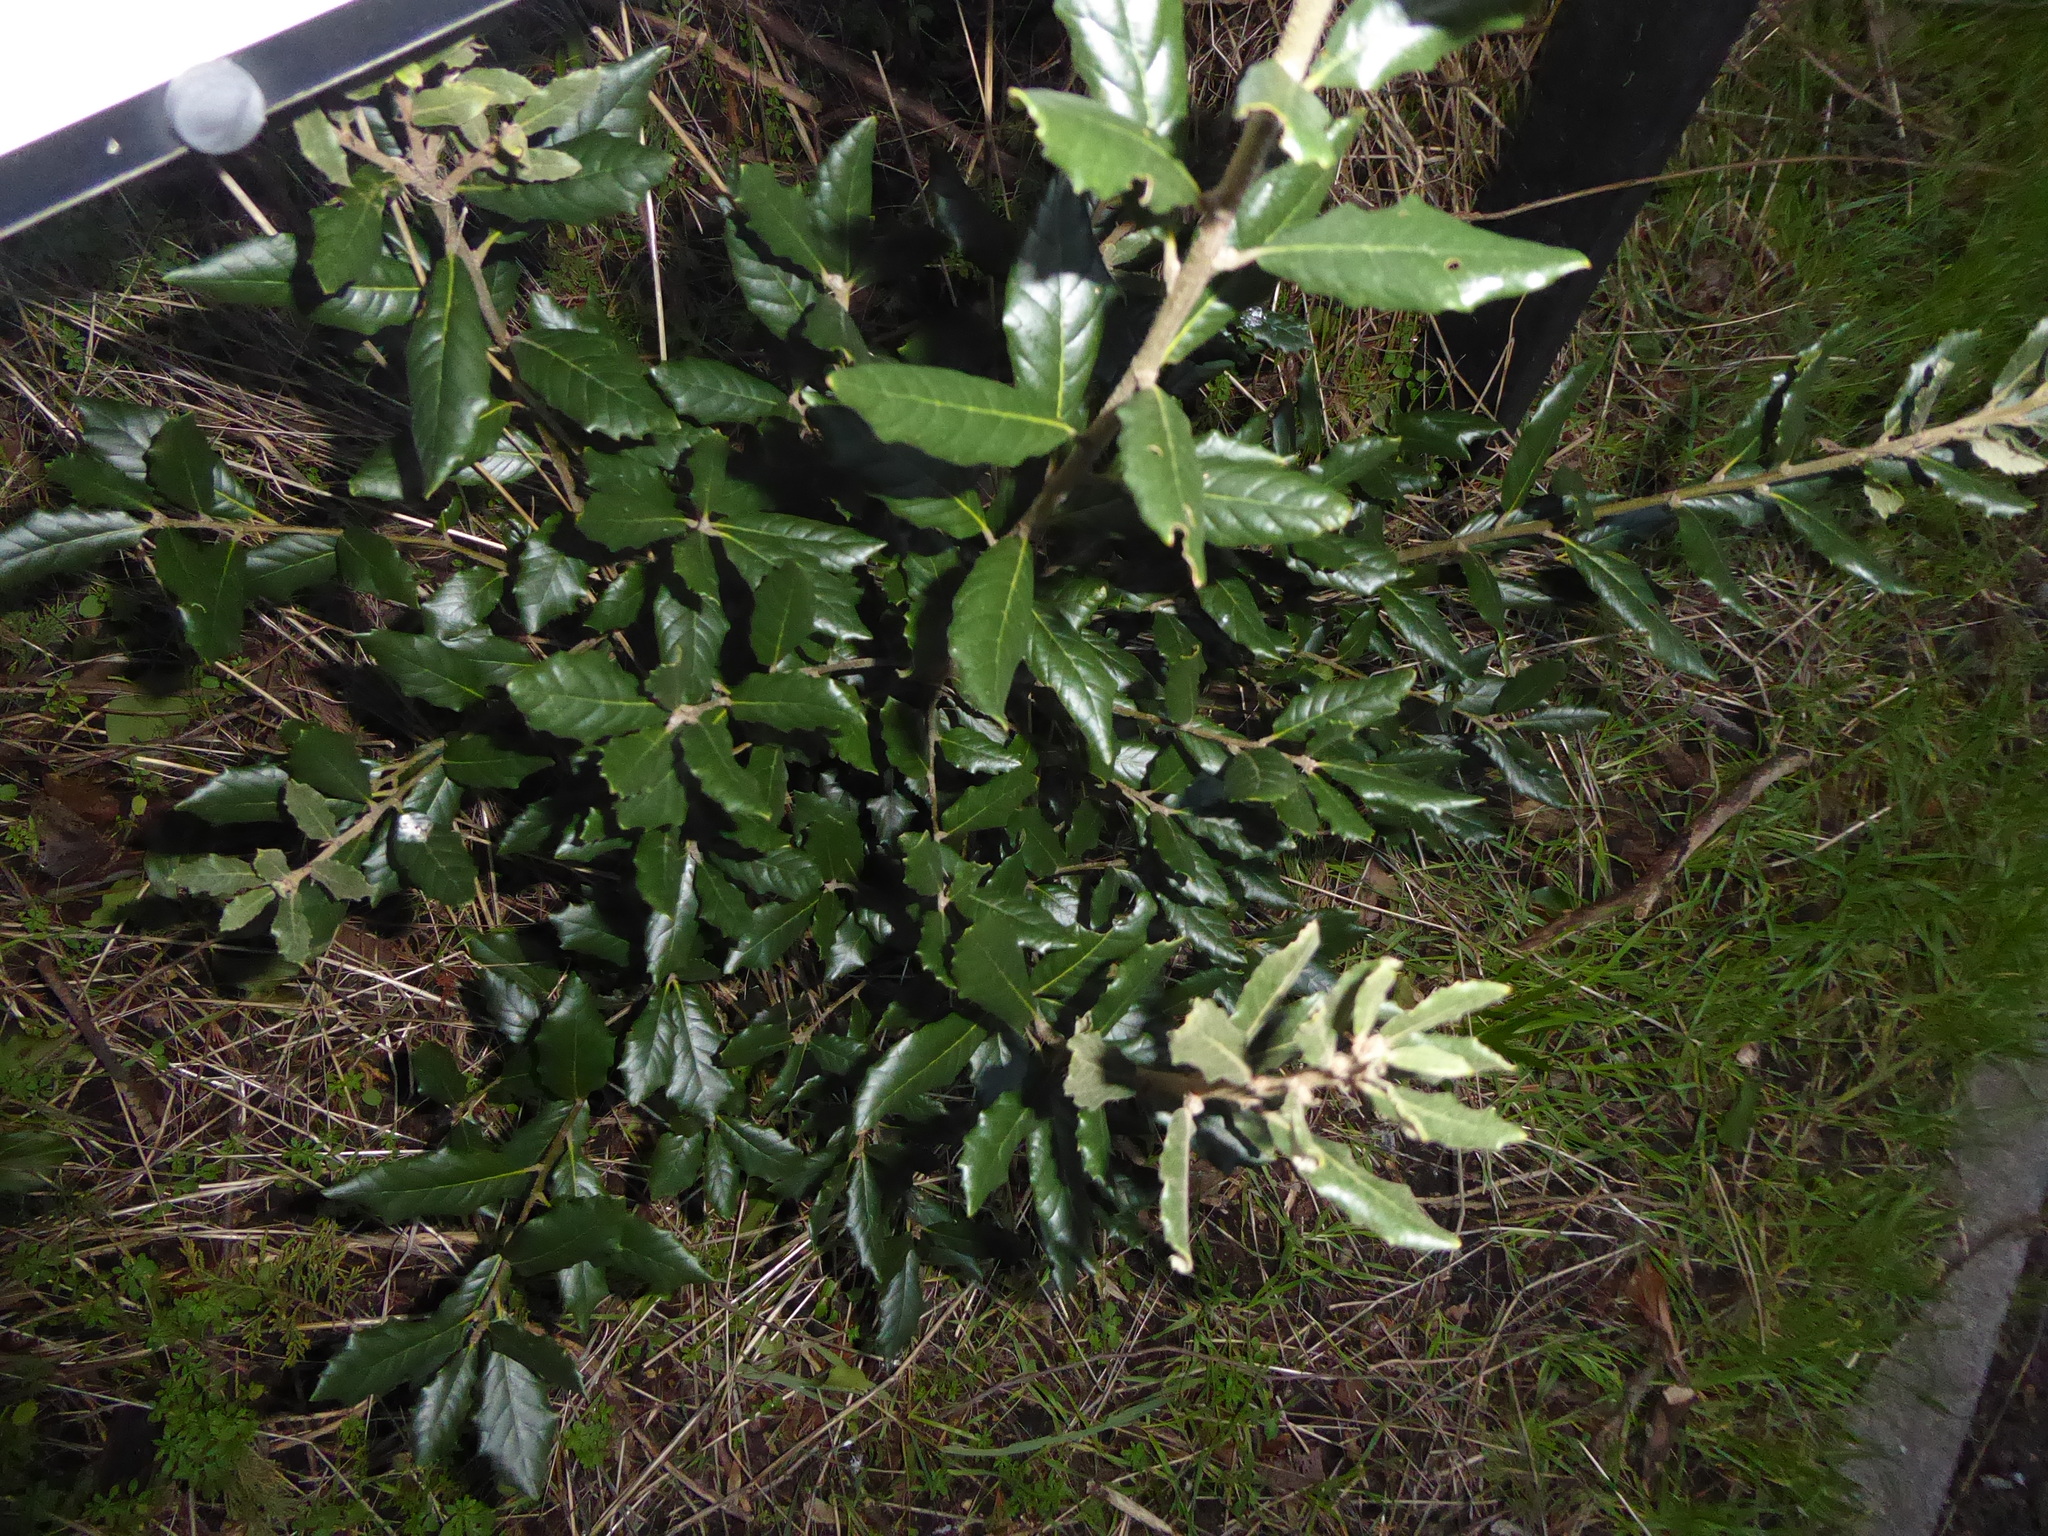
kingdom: Plantae
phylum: Tracheophyta
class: Magnoliopsida
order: Fagales
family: Fagaceae
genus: Quercus
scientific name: Quercus ilex
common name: Evergreen oak
